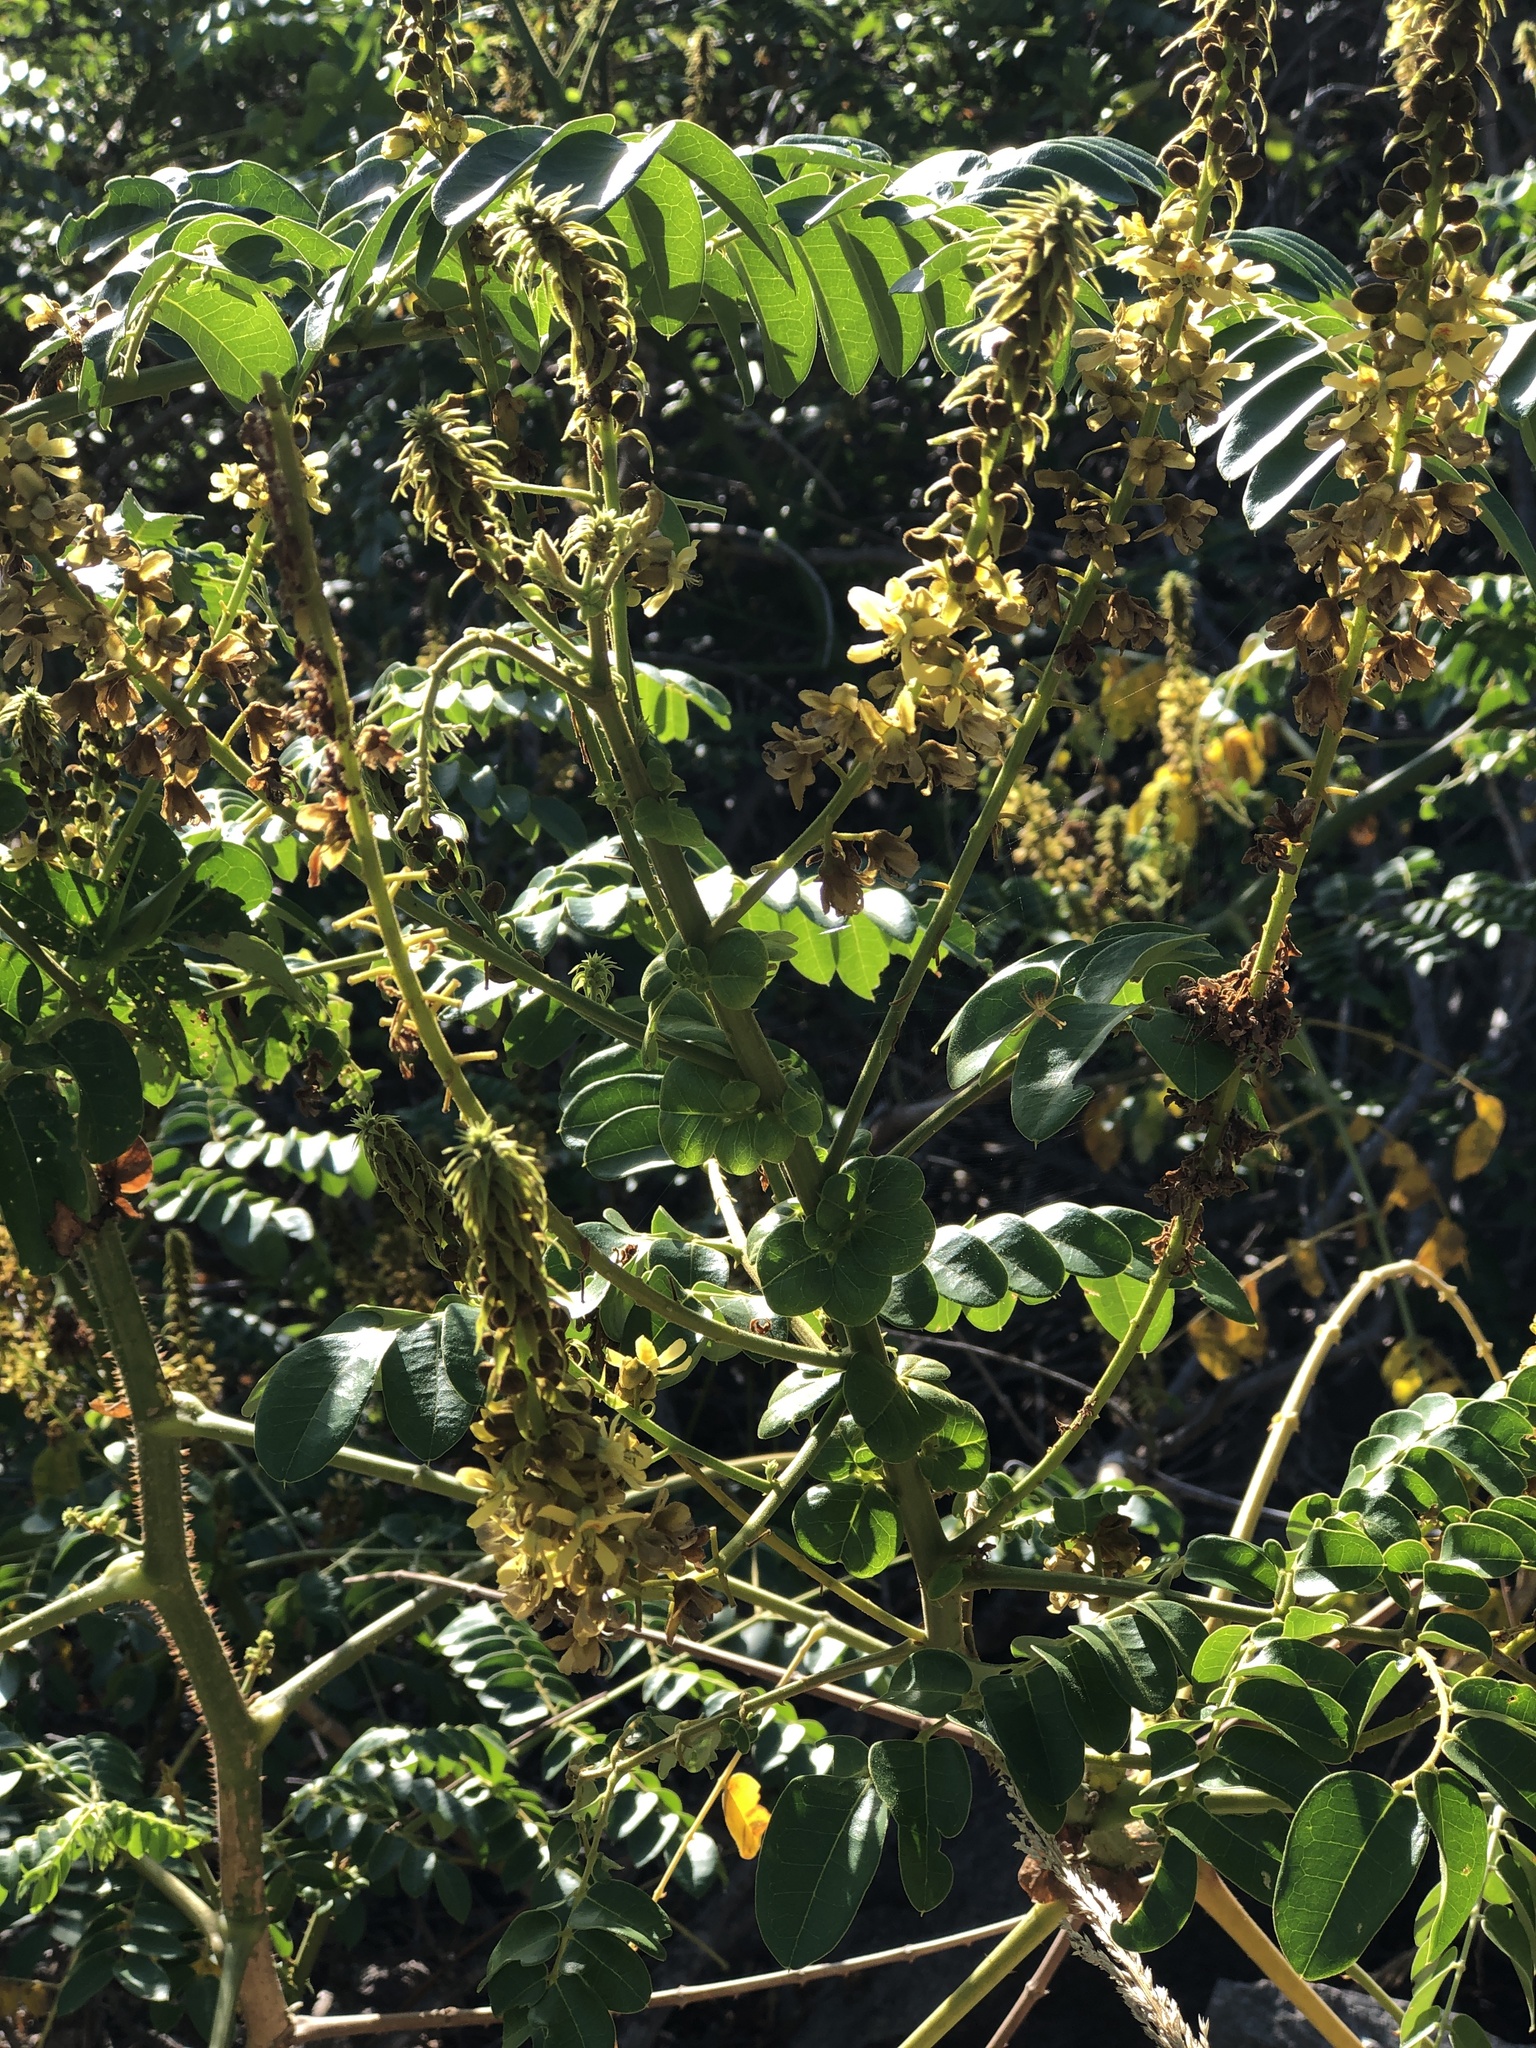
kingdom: Plantae
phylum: Tracheophyta
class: Magnoliopsida
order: Fabales
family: Fabaceae
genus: Guilandina
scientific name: Guilandina bonduc
